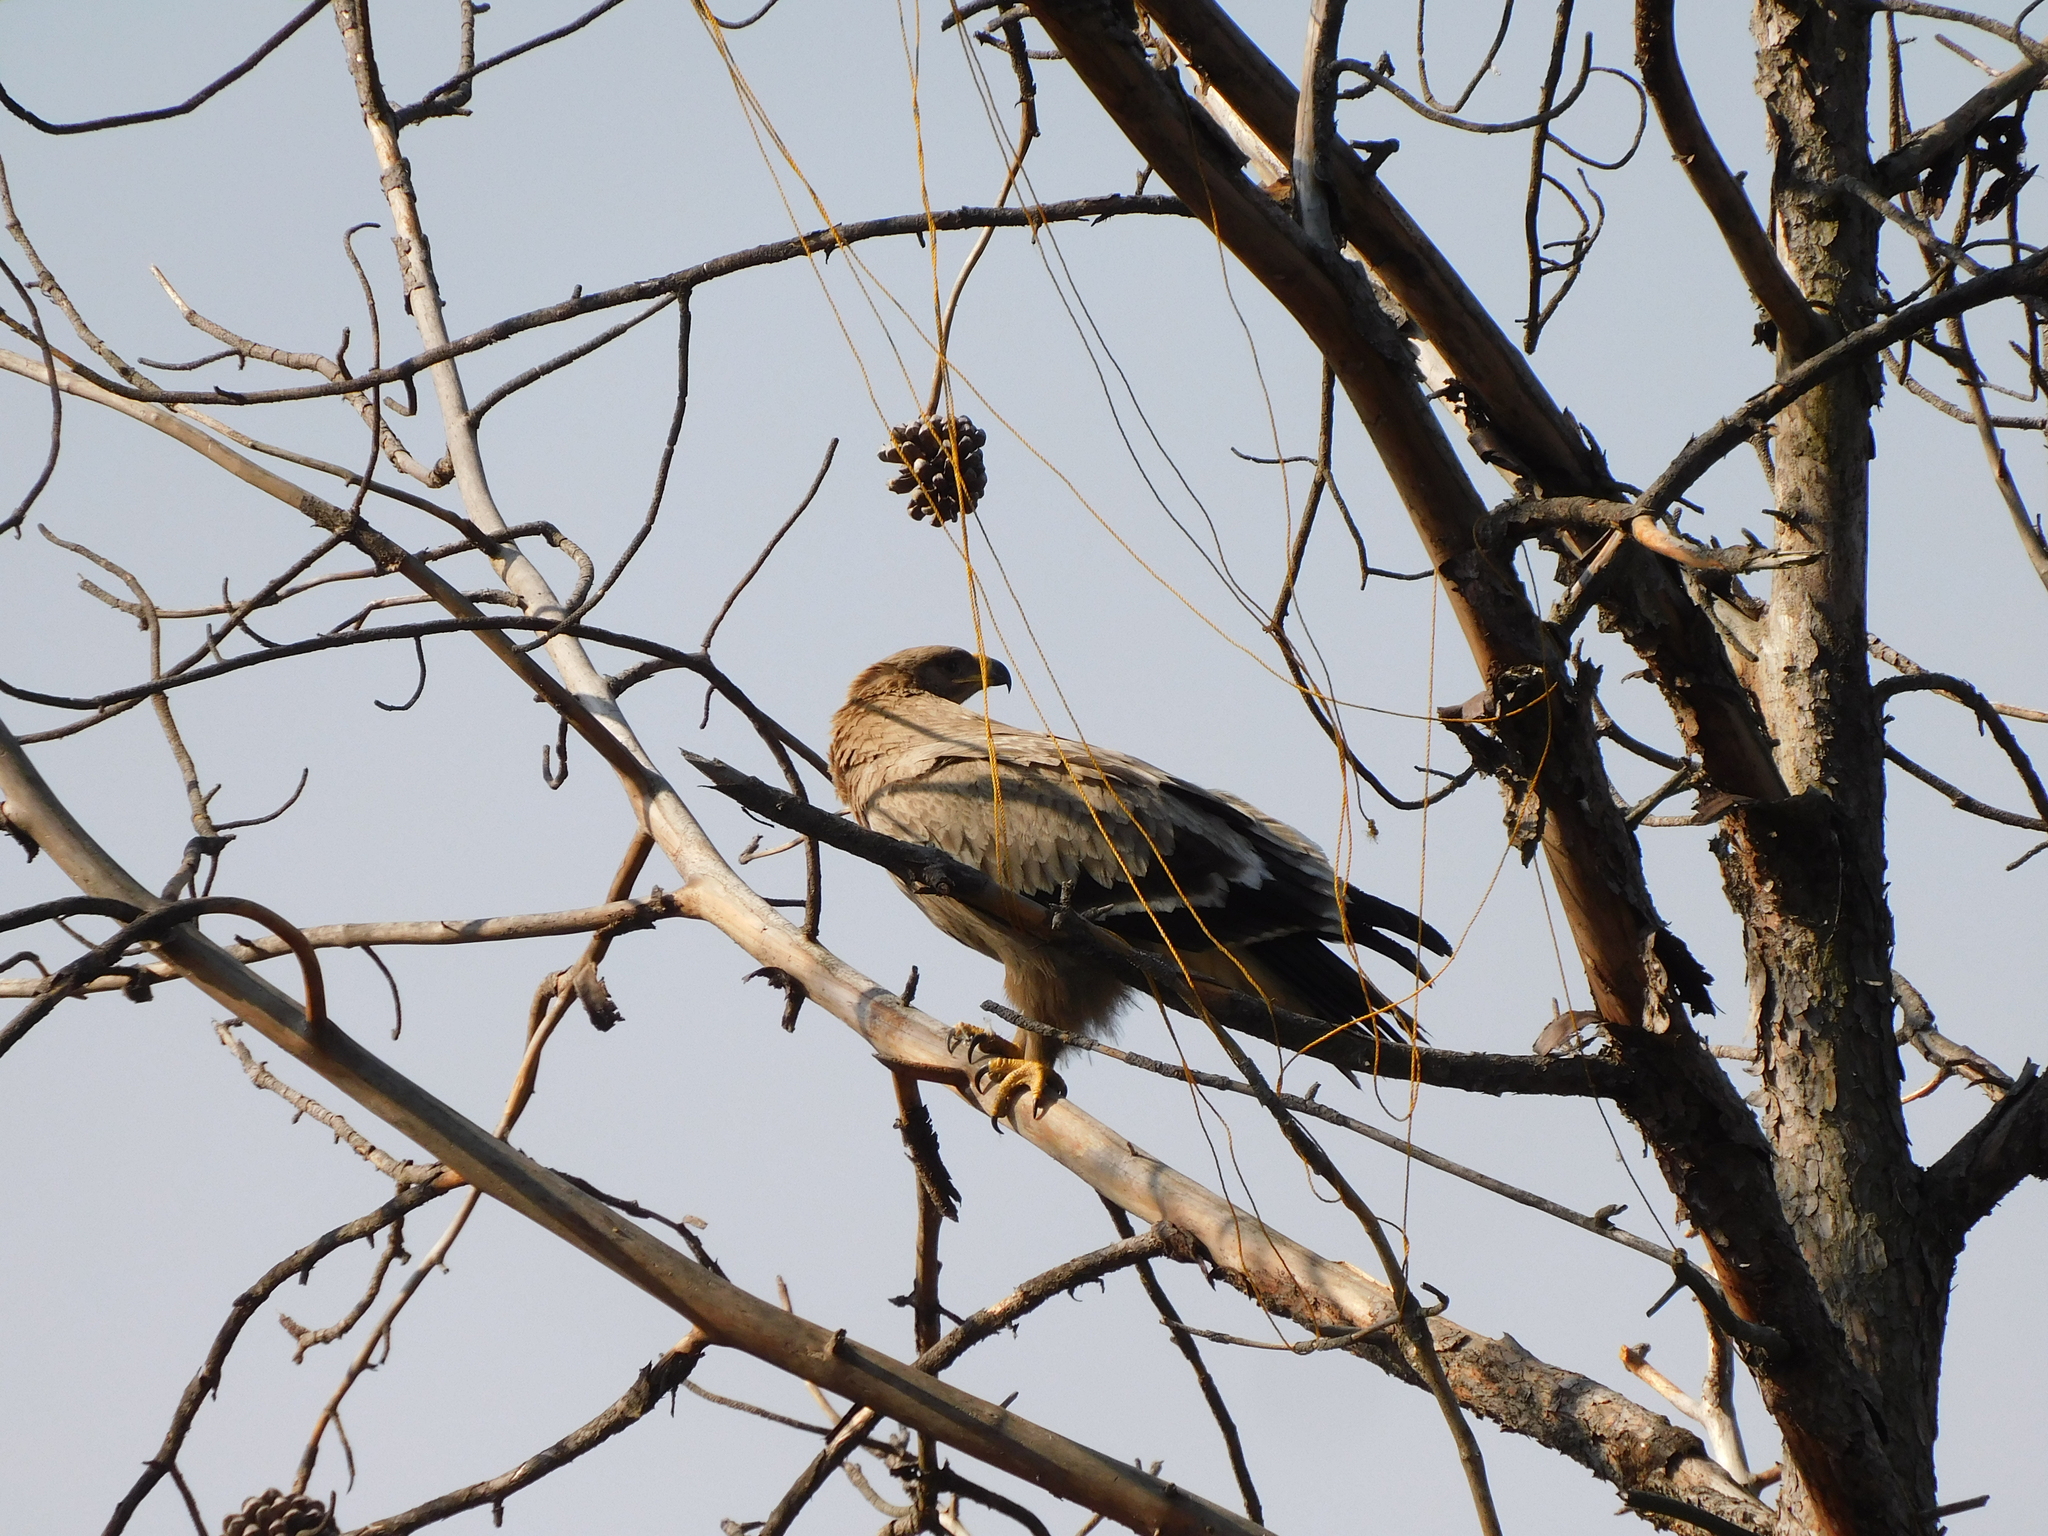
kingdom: Animalia
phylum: Chordata
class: Aves
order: Accipitriformes
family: Accipitridae
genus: Aquila
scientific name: Aquila nipalensis
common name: Steppe eagle
